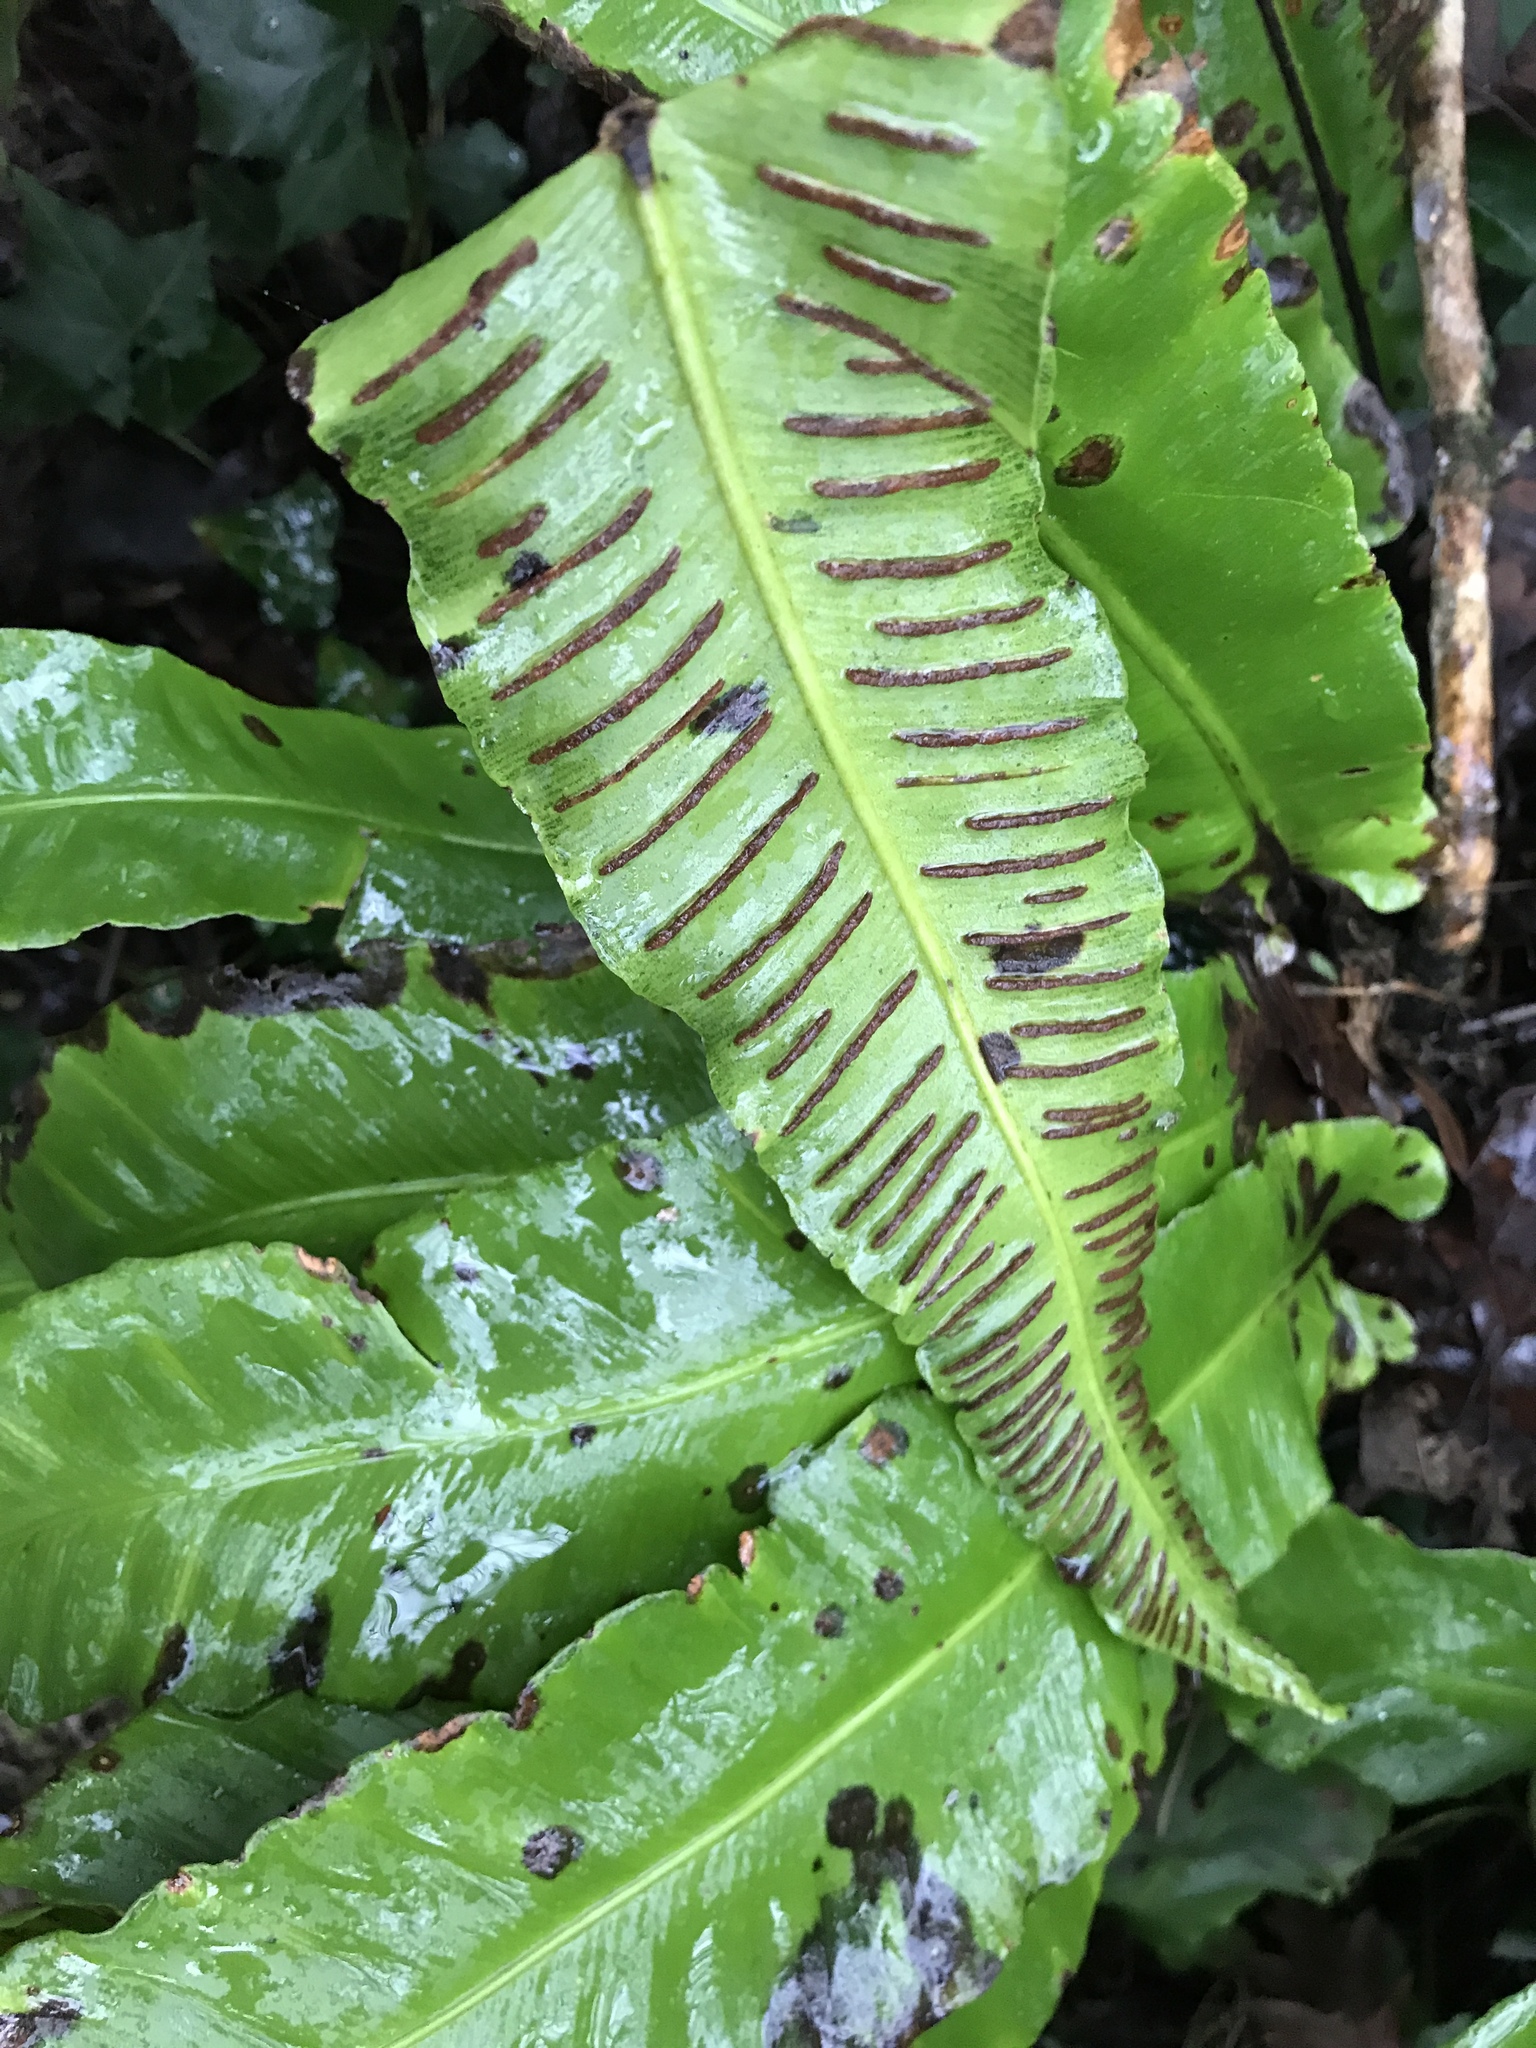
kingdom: Plantae
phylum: Tracheophyta
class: Polypodiopsida
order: Polypodiales
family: Aspleniaceae
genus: Asplenium
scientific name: Asplenium scolopendrium
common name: Hart's-tongue fern
